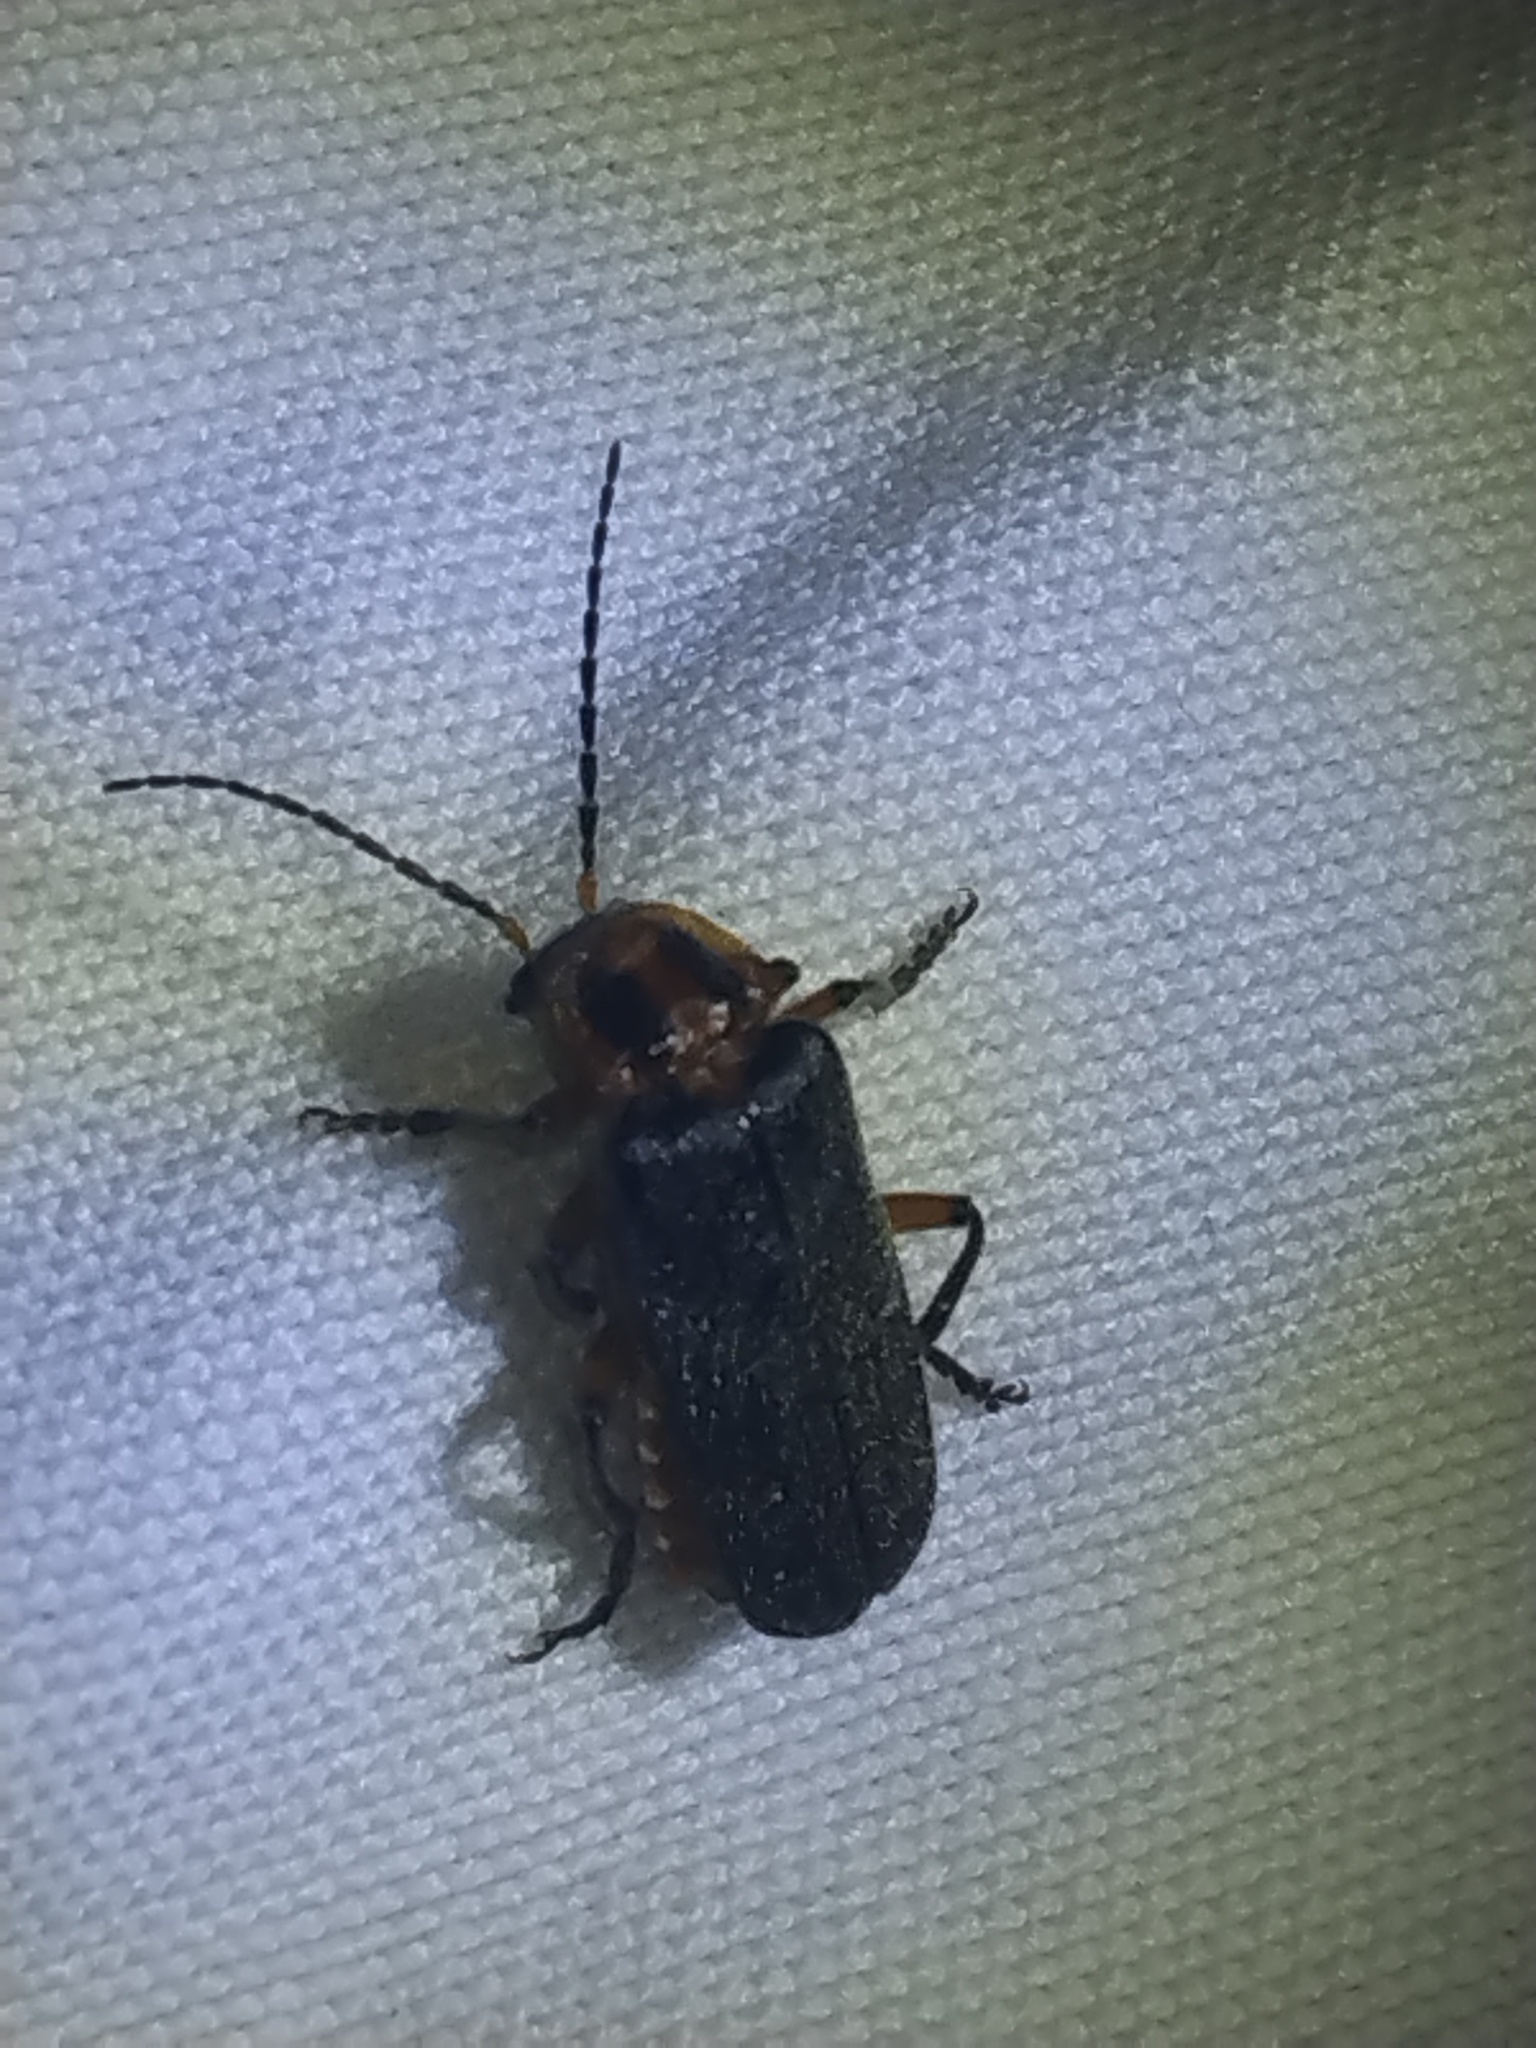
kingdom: Animalia
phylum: Arthropoda
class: Insecta
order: Coleoptera
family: Cantharidae
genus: Atalantycha
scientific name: Atalantycha bilineata
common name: Two-lined leatherwing
